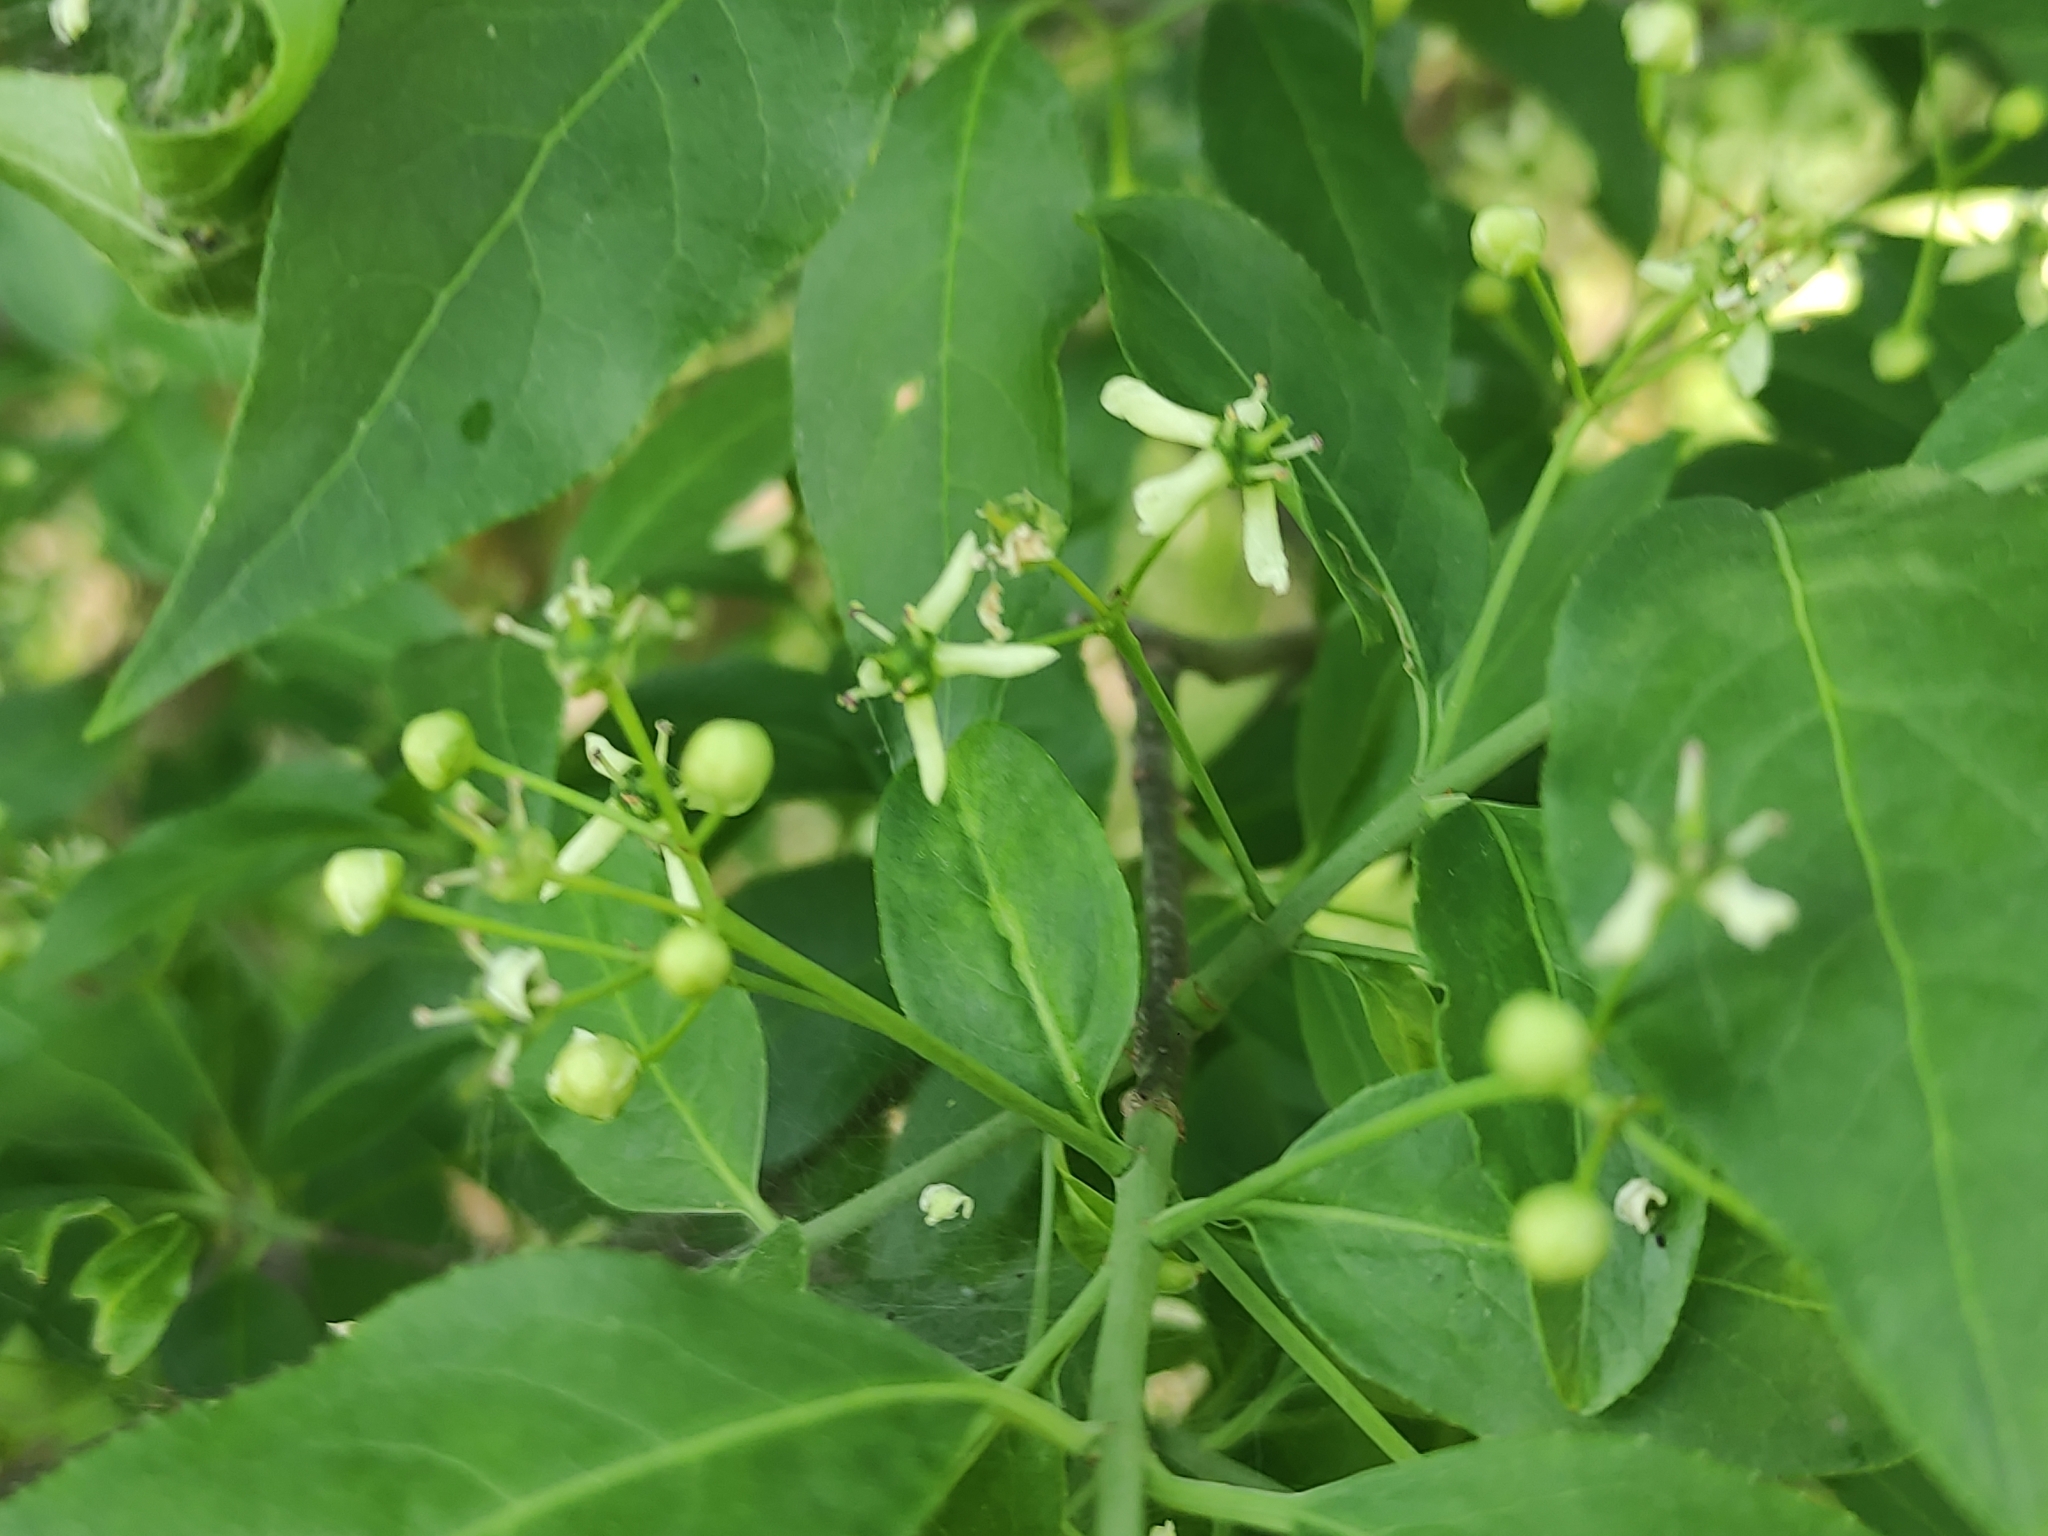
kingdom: Plantae
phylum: Tracheophyta
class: Magnoliopsida
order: Celastrales
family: Celastraceae
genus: Euonymus
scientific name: Euonymus europaeus
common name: Spindle
